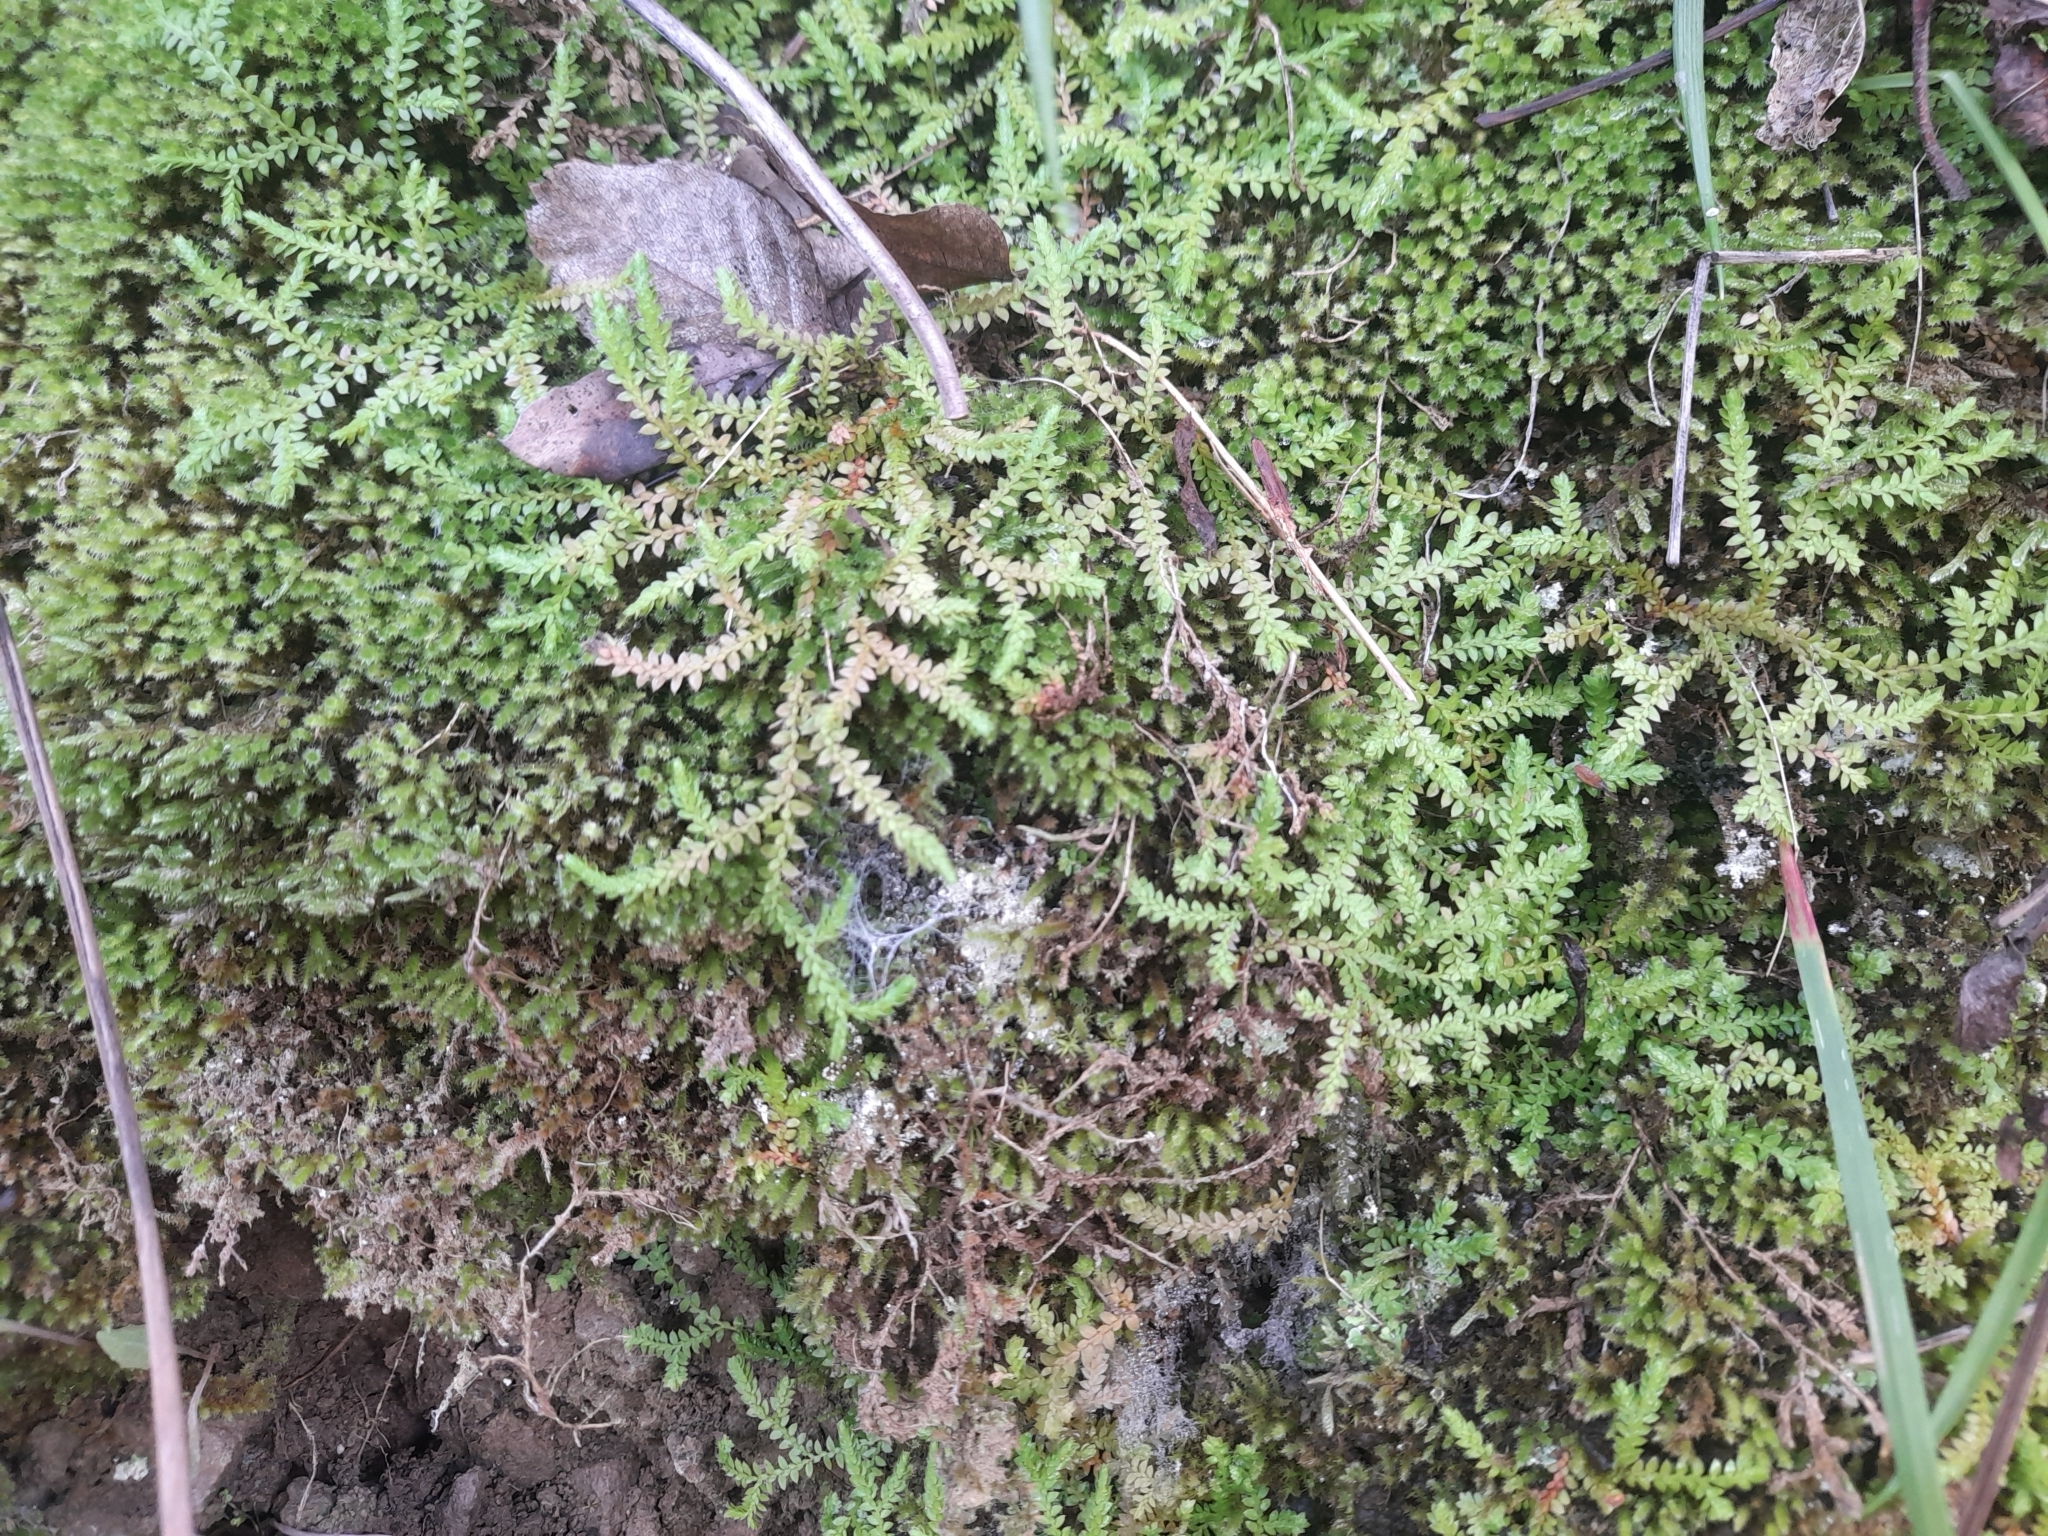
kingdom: Plantae
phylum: Tracheophyta
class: Lycopodiopsida
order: Selaginellales
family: Selaginellaceae
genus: Selaginella
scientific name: Selaginella denticulata
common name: Toothed-leaved clubmoss
